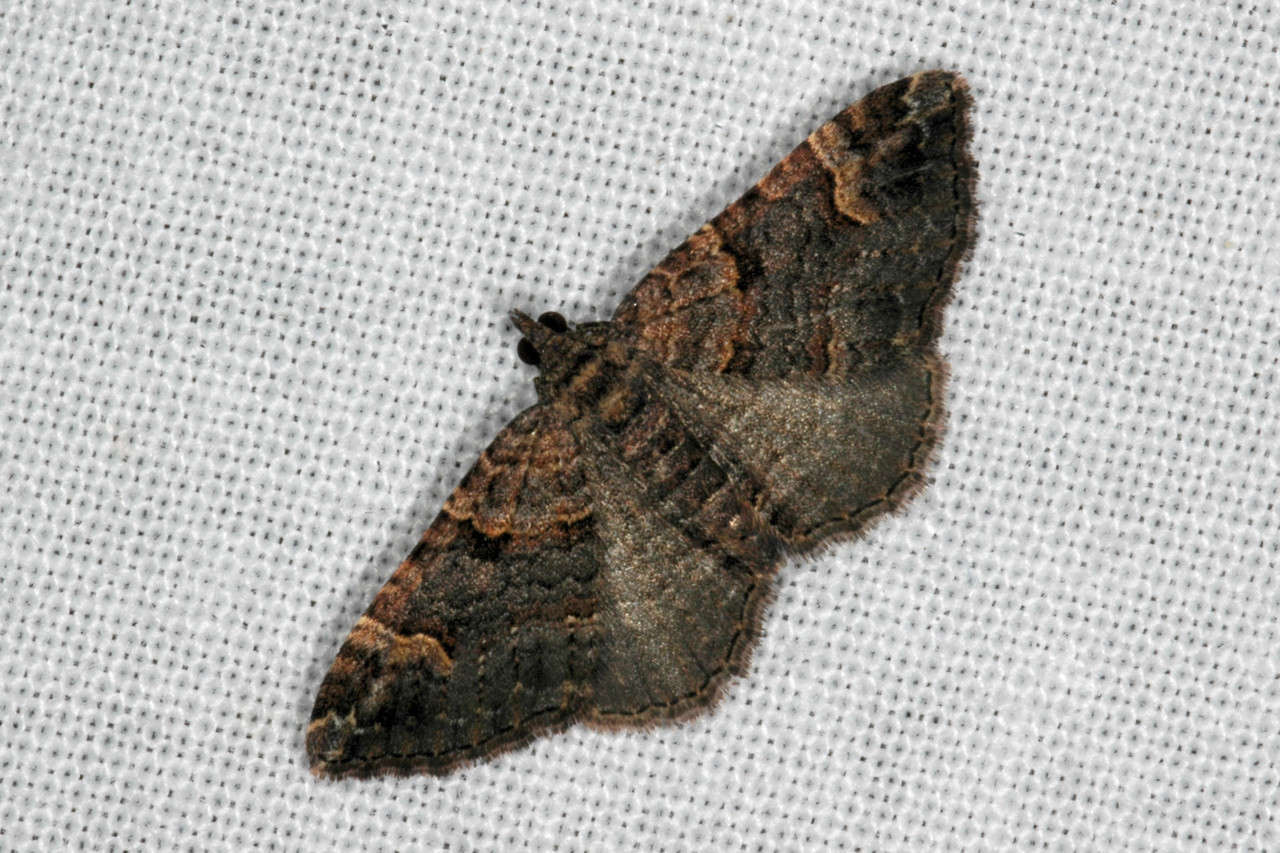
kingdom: Animalia
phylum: Arthropoda
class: Insecta
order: Lepidoptera
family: Geometridae
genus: Epyaxa
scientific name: Epyaxa sodaliata
